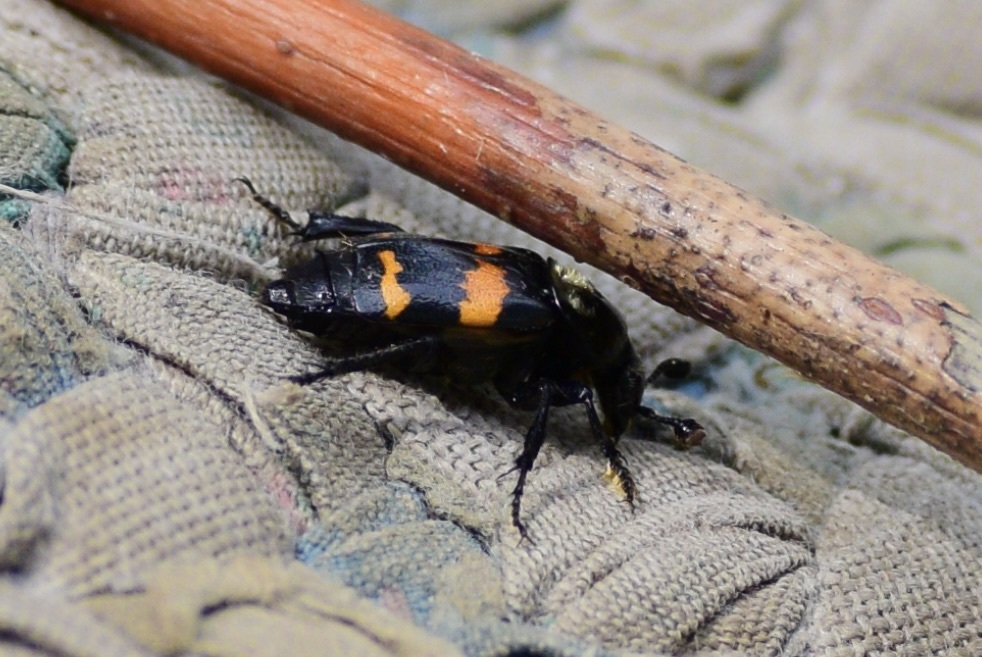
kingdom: Animalia
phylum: Arthropoda
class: Insecta
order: Coleoptera
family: Staphylinidae
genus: Nicrophorus
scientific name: Nicrophorus tomentosus
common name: Tomentose burying beetle
